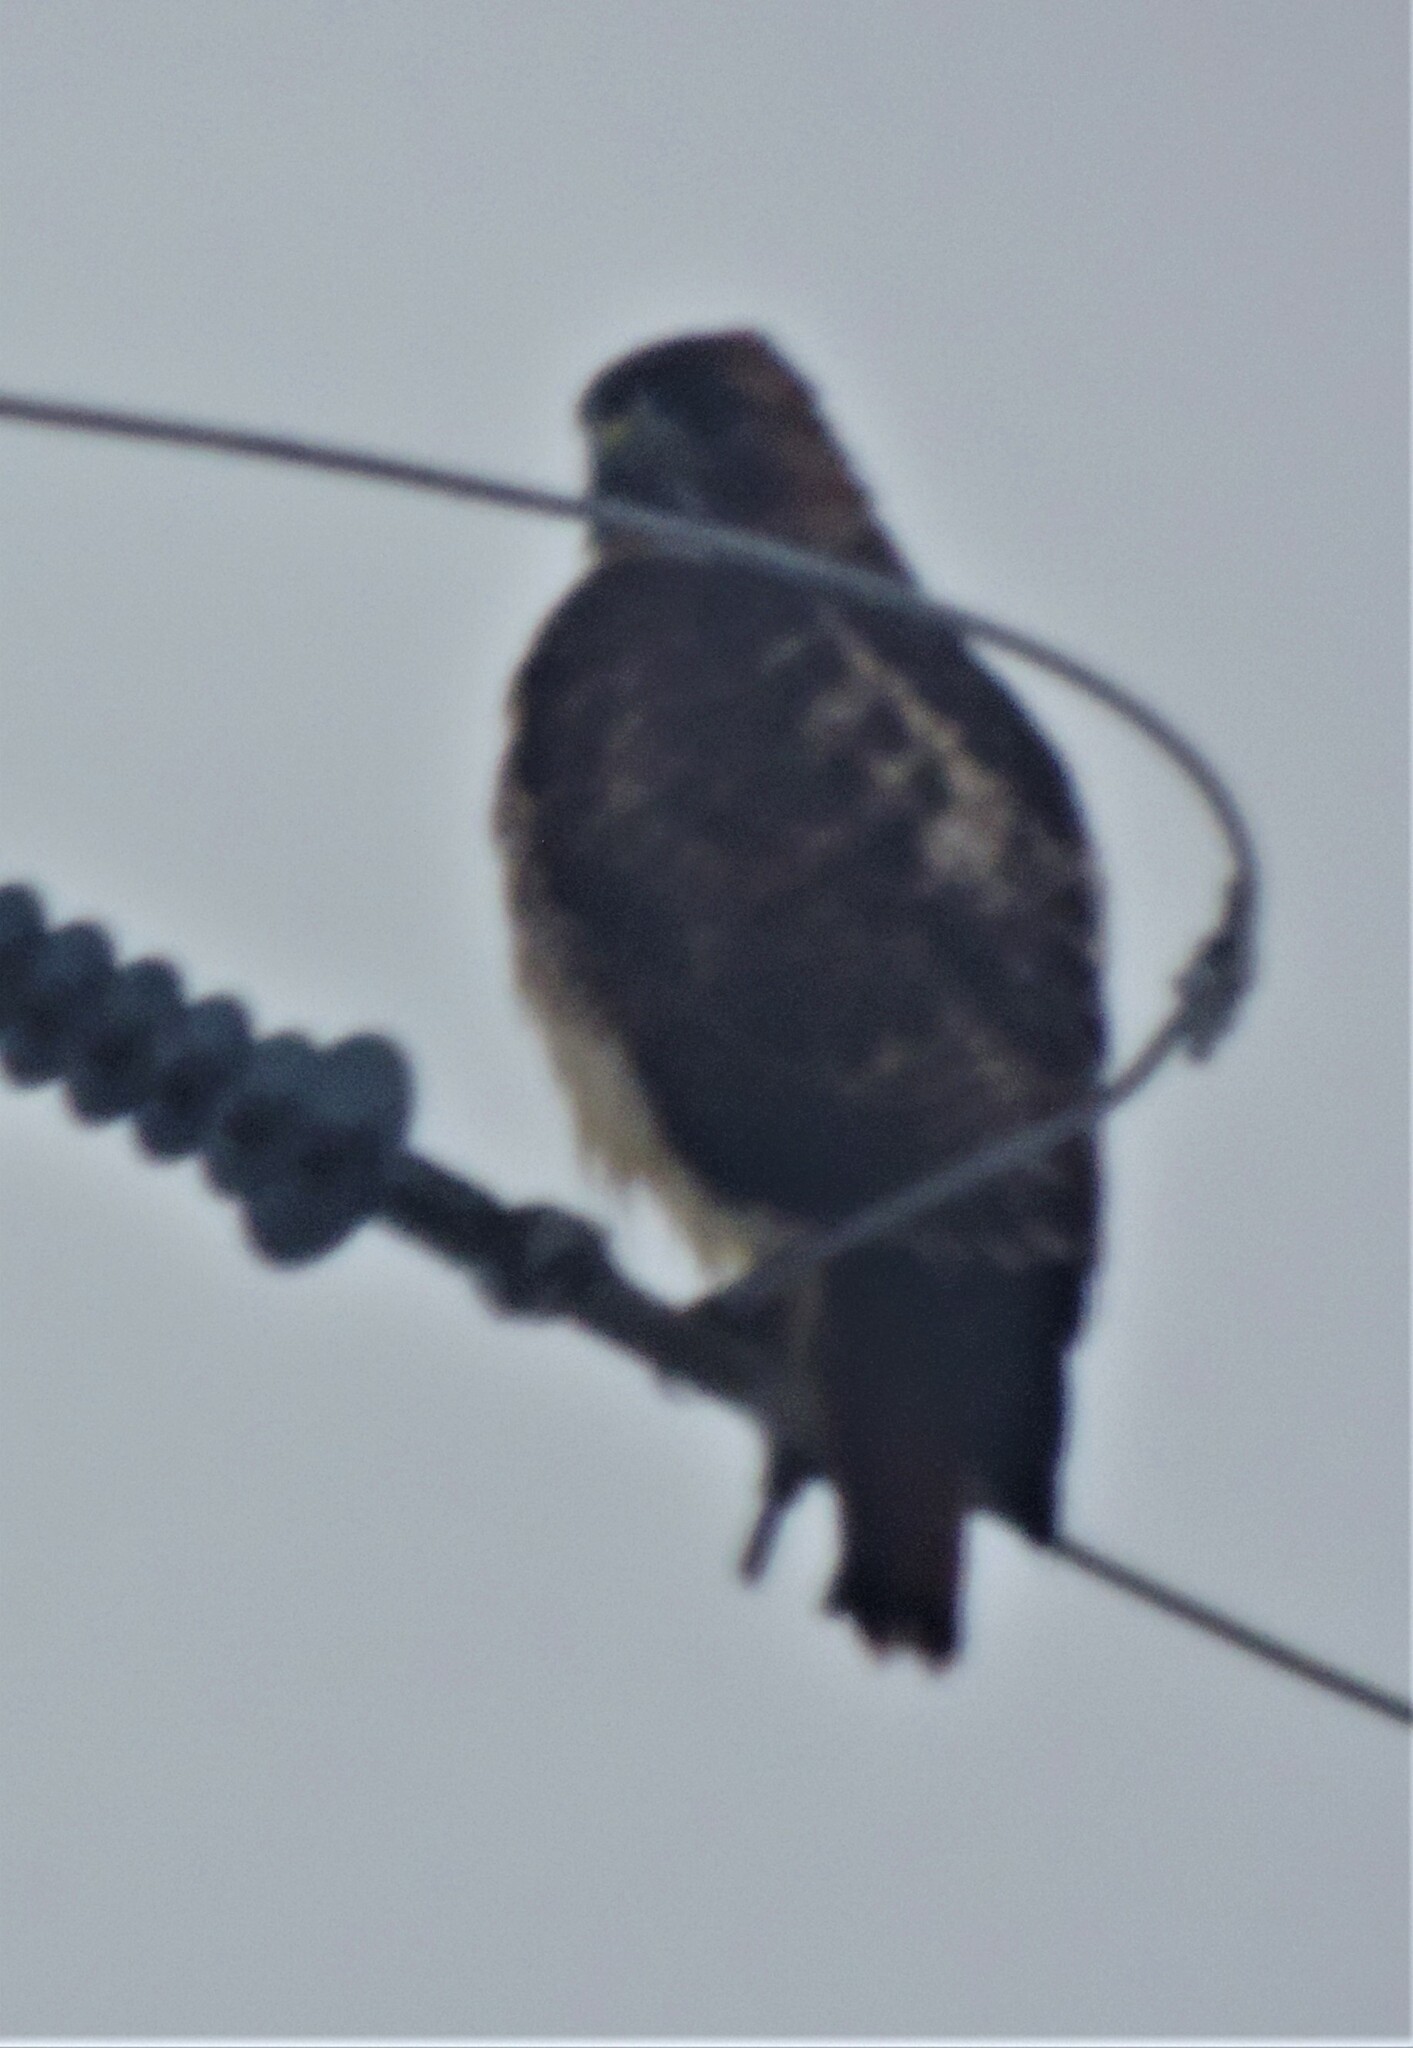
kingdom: Animalia
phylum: Chordata
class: Aves
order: Accipitriformes
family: Accipitridae
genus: Buteo
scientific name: Buteo jamaicensis
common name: Red-tailed hawk
